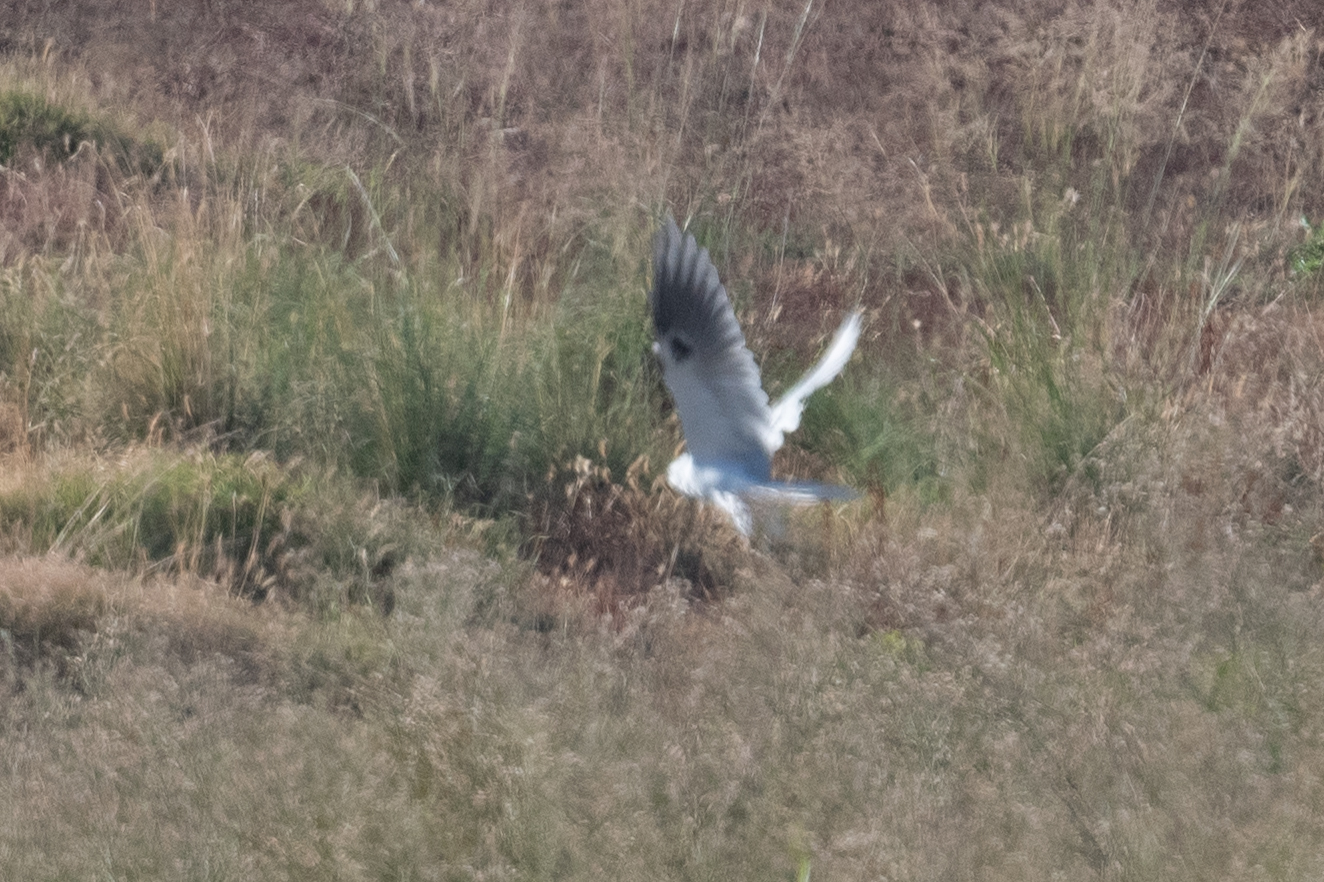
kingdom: Animalia
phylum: Chordata
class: Aves
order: Accipitriformes
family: Accipitridae
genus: Elanus
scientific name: Elanus leucurus
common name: White-tailed kite
